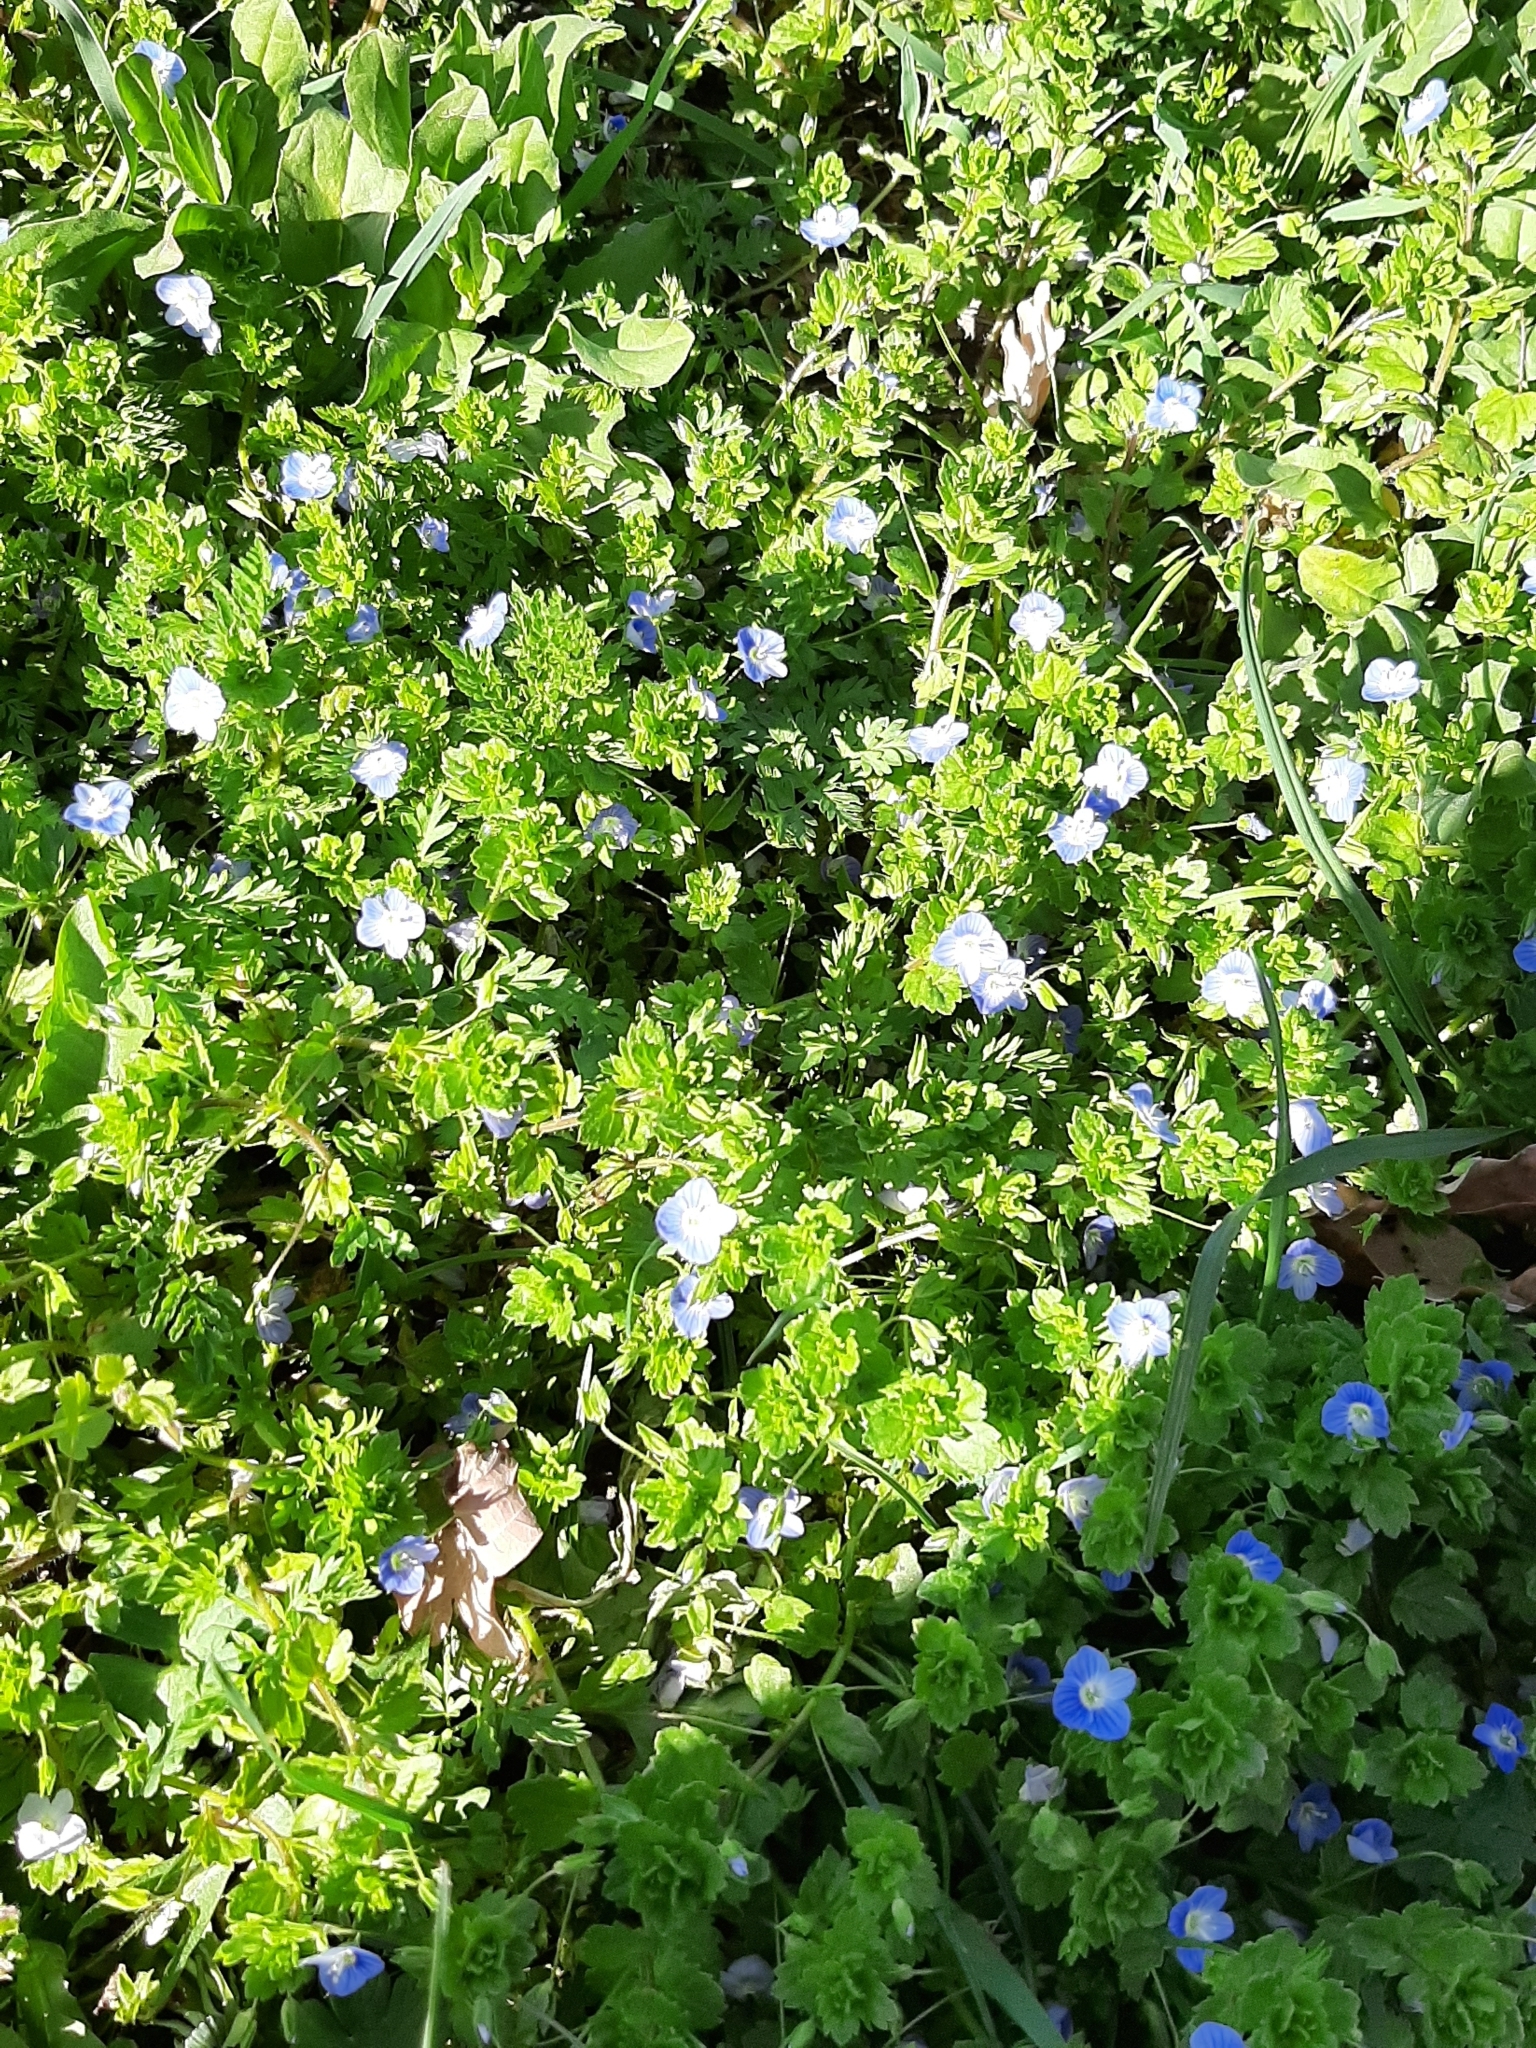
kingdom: Plantae
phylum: Tracheophyta
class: Magnoliopsida
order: Lamiales
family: Plantaginaceae
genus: Veronica
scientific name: Veronica persica
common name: Common field-speedwell
